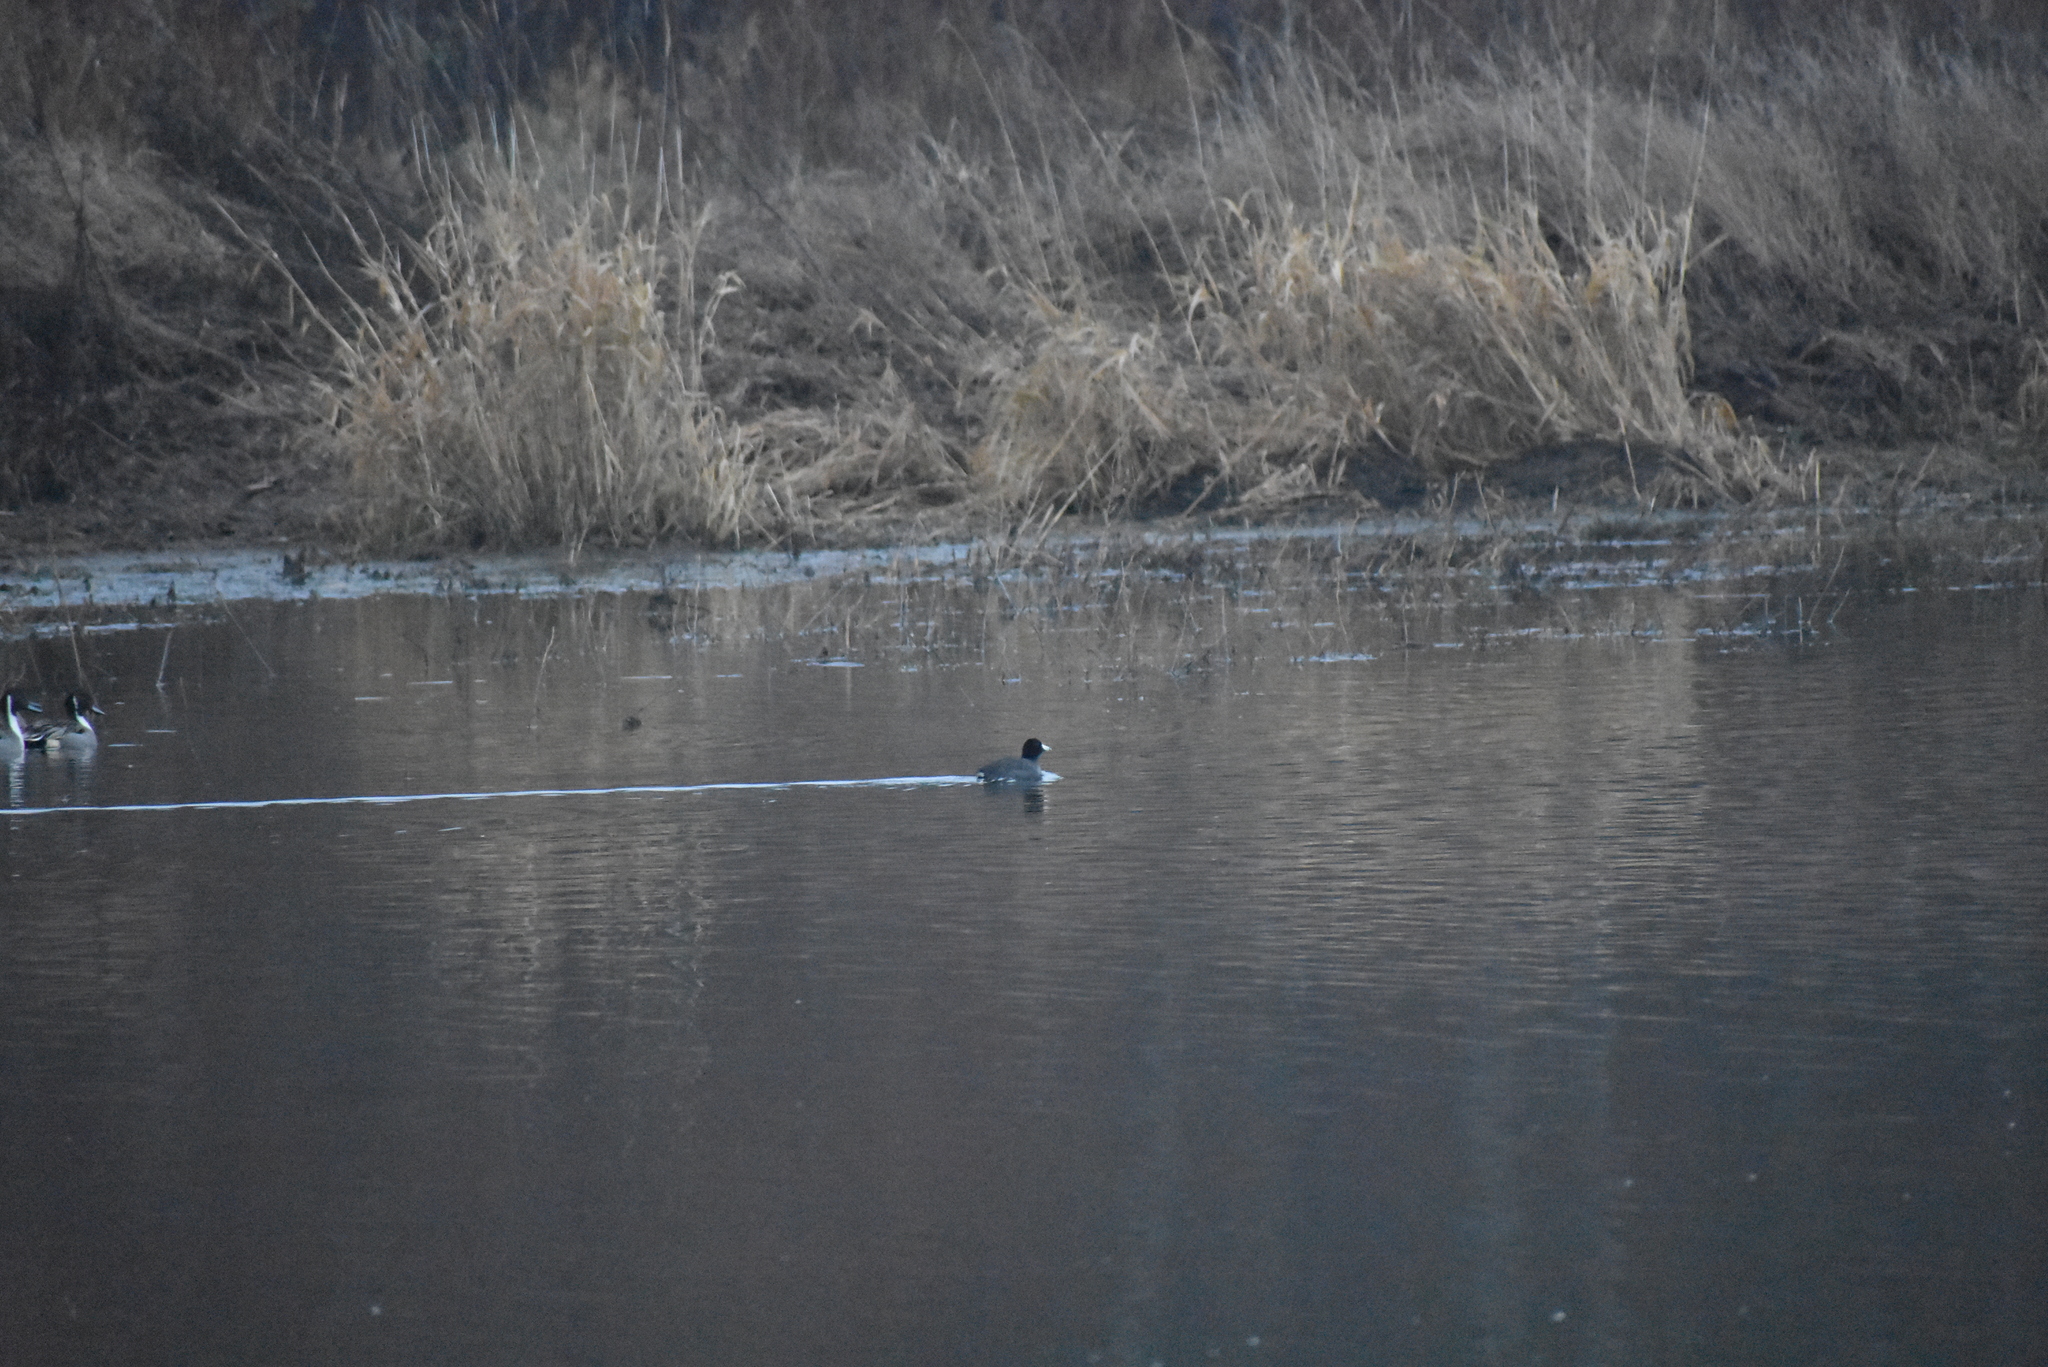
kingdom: Animalia
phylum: Chordata
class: Aves
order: Gruiformes
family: Rallidae
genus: Fulica
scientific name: Fulica americana
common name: American coot
